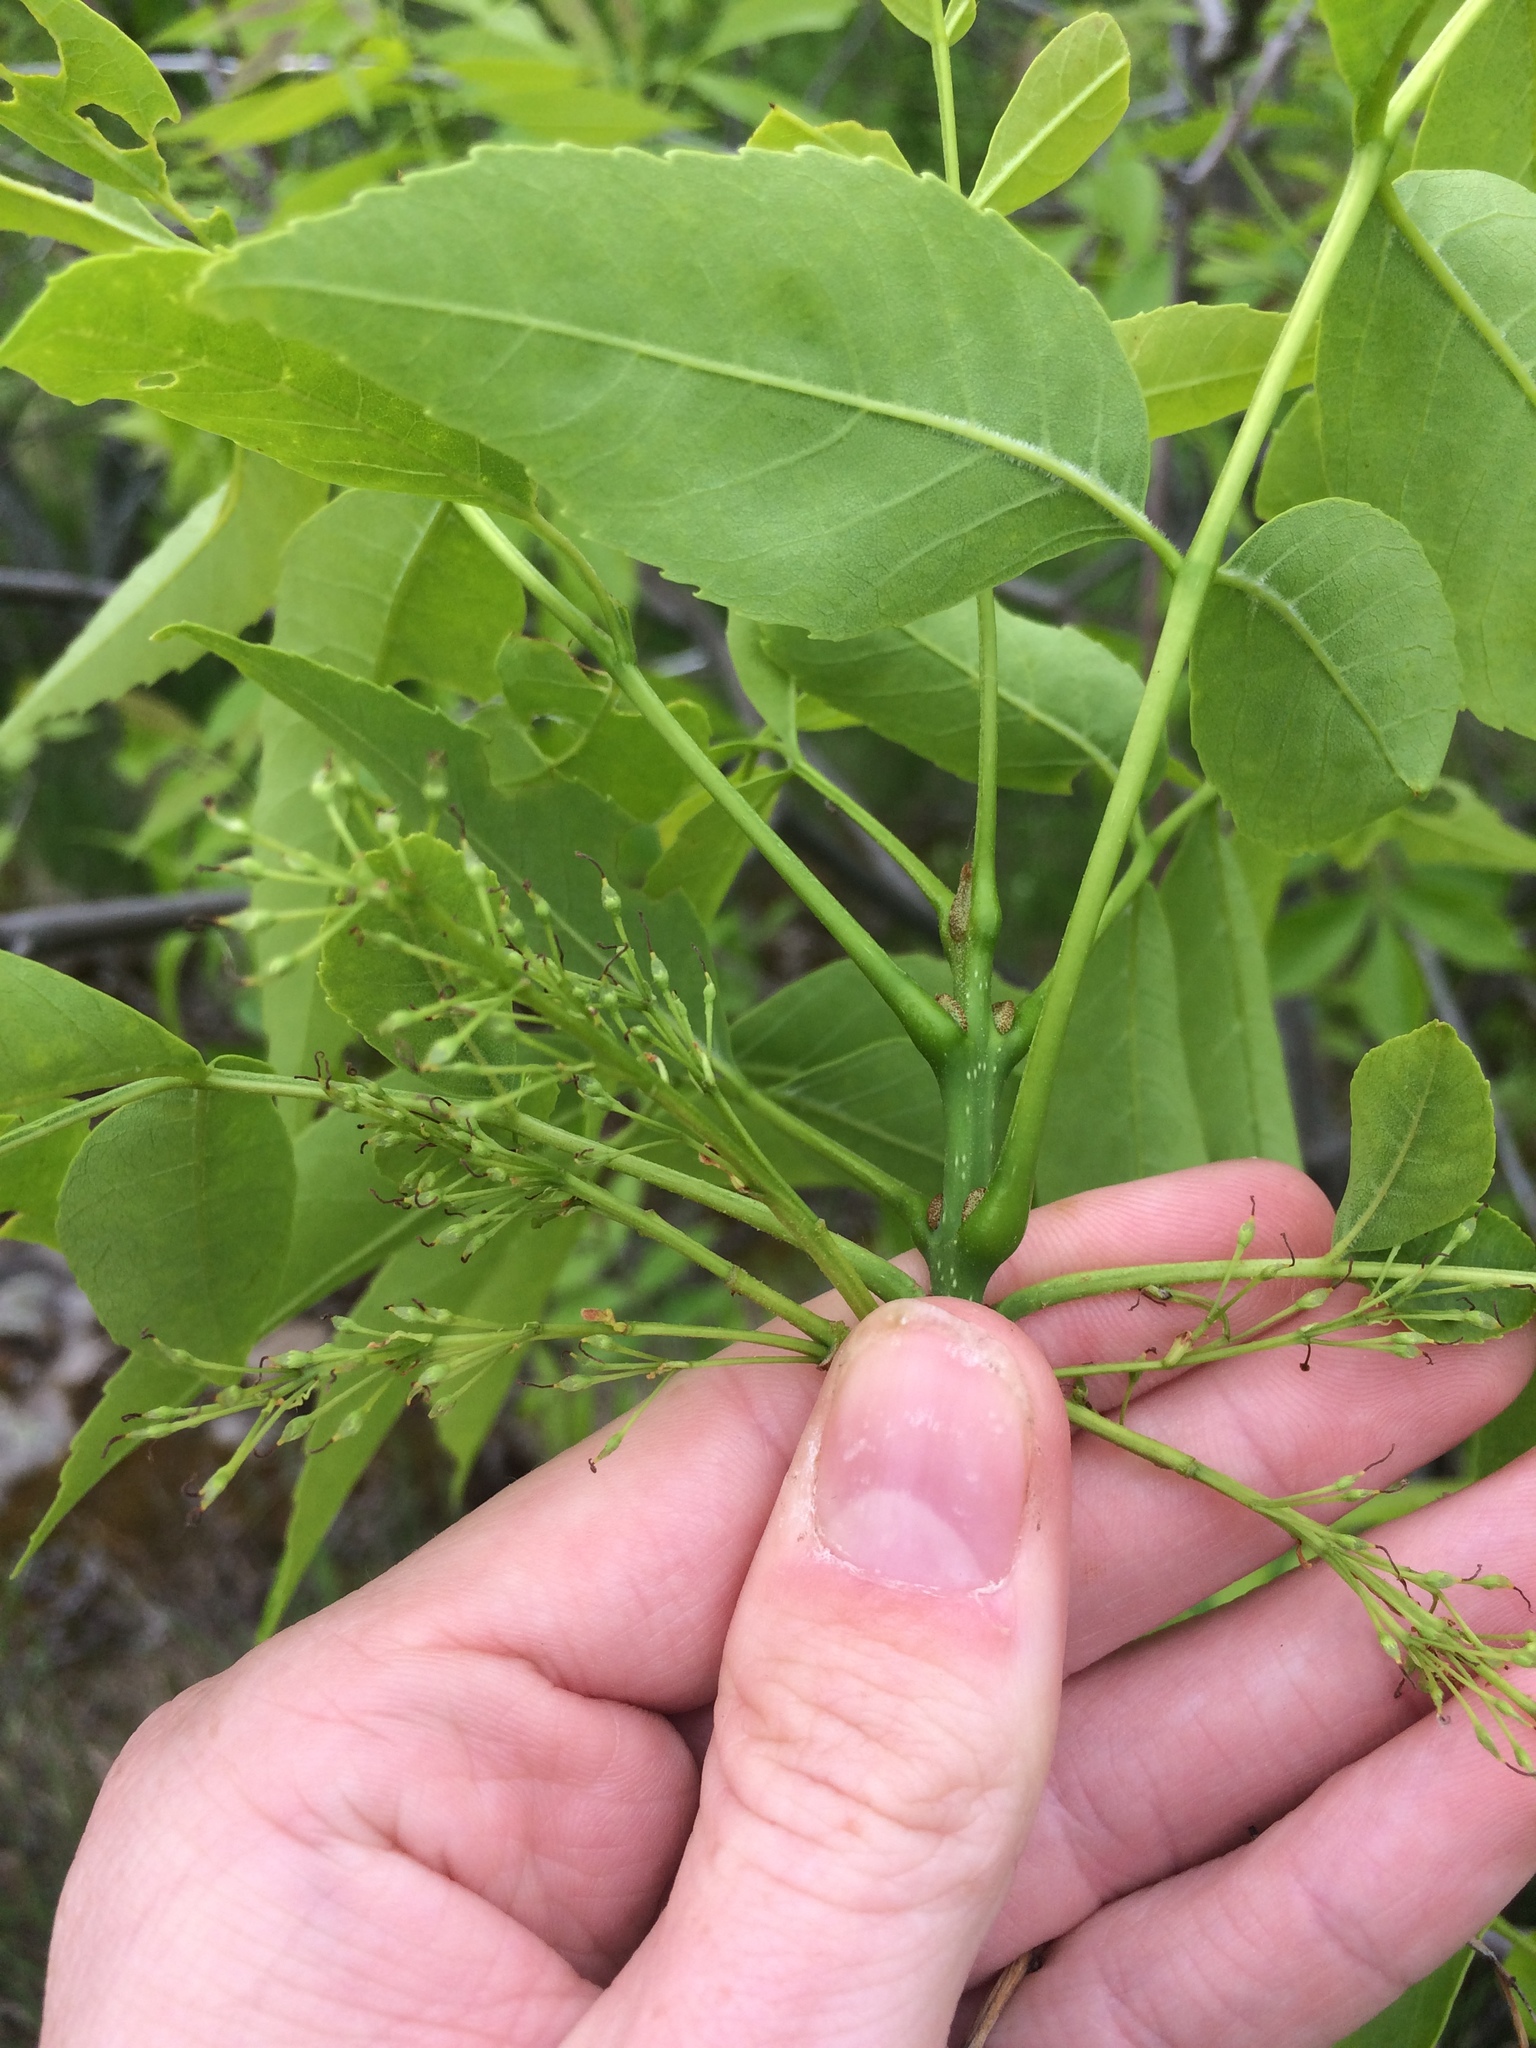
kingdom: Plantae
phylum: Tracheophyta
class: Magnoliopsida
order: Lamiales
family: Oleaceae
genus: Fraxinus
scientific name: Fraxinus pennsylvanica
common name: Green ash
